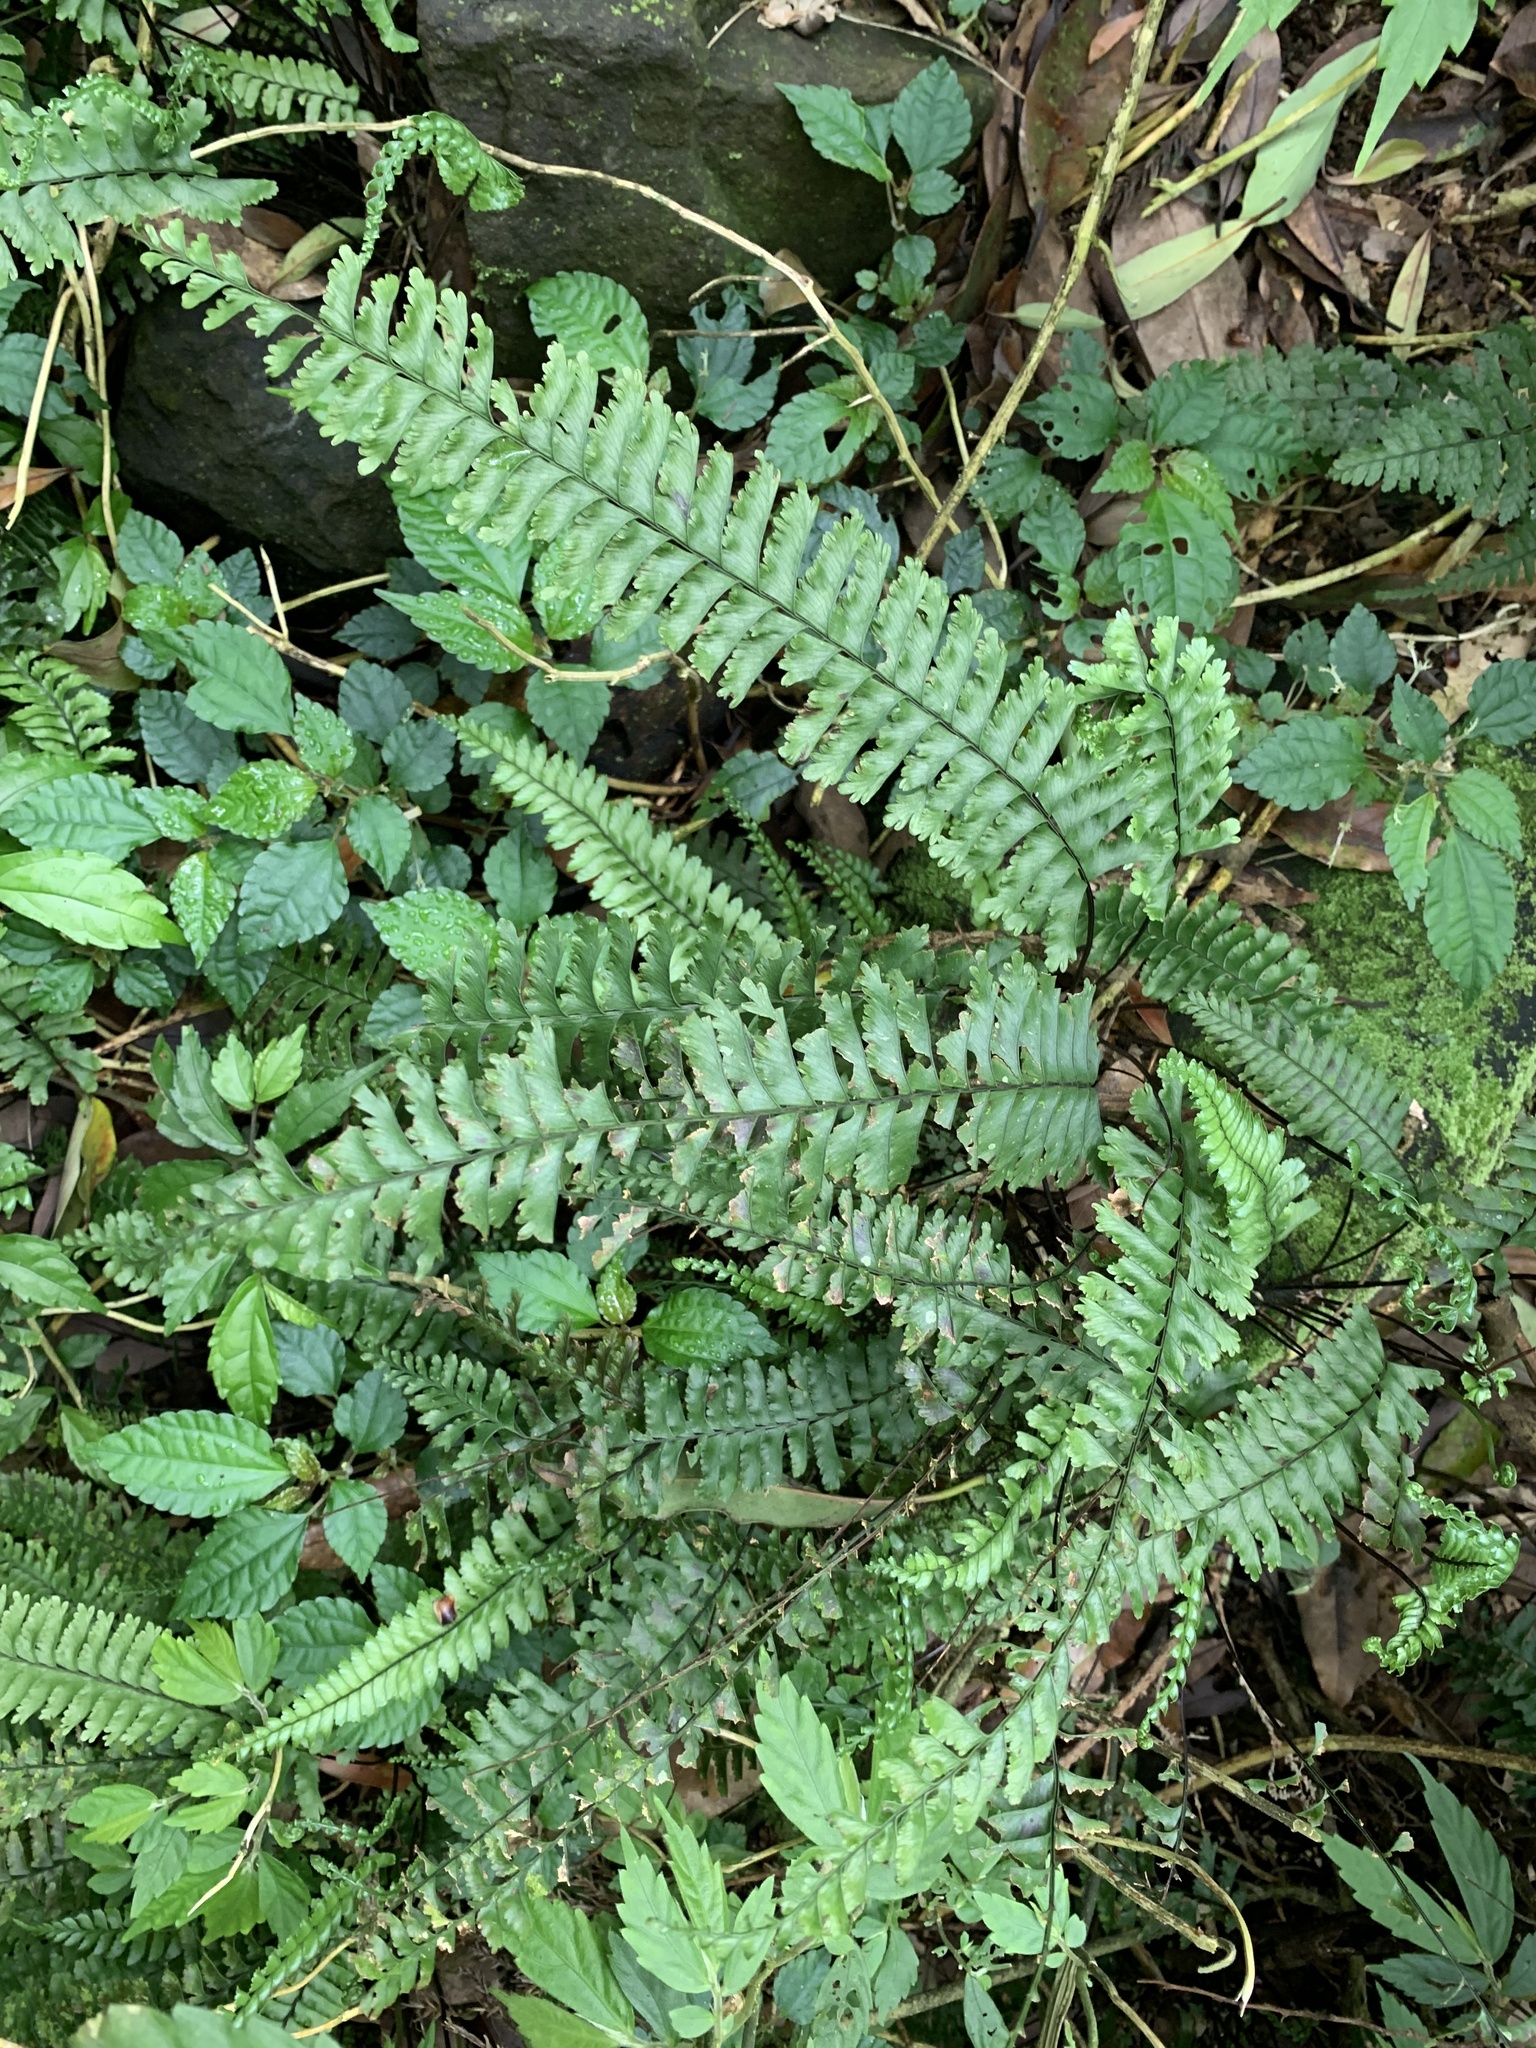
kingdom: Plantae
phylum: Tracheophyta
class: Polypodiopsida
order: Polypodiales
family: Aspleniaceae
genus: Hymenasplenium
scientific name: Hymenasplenium cheilosorum
